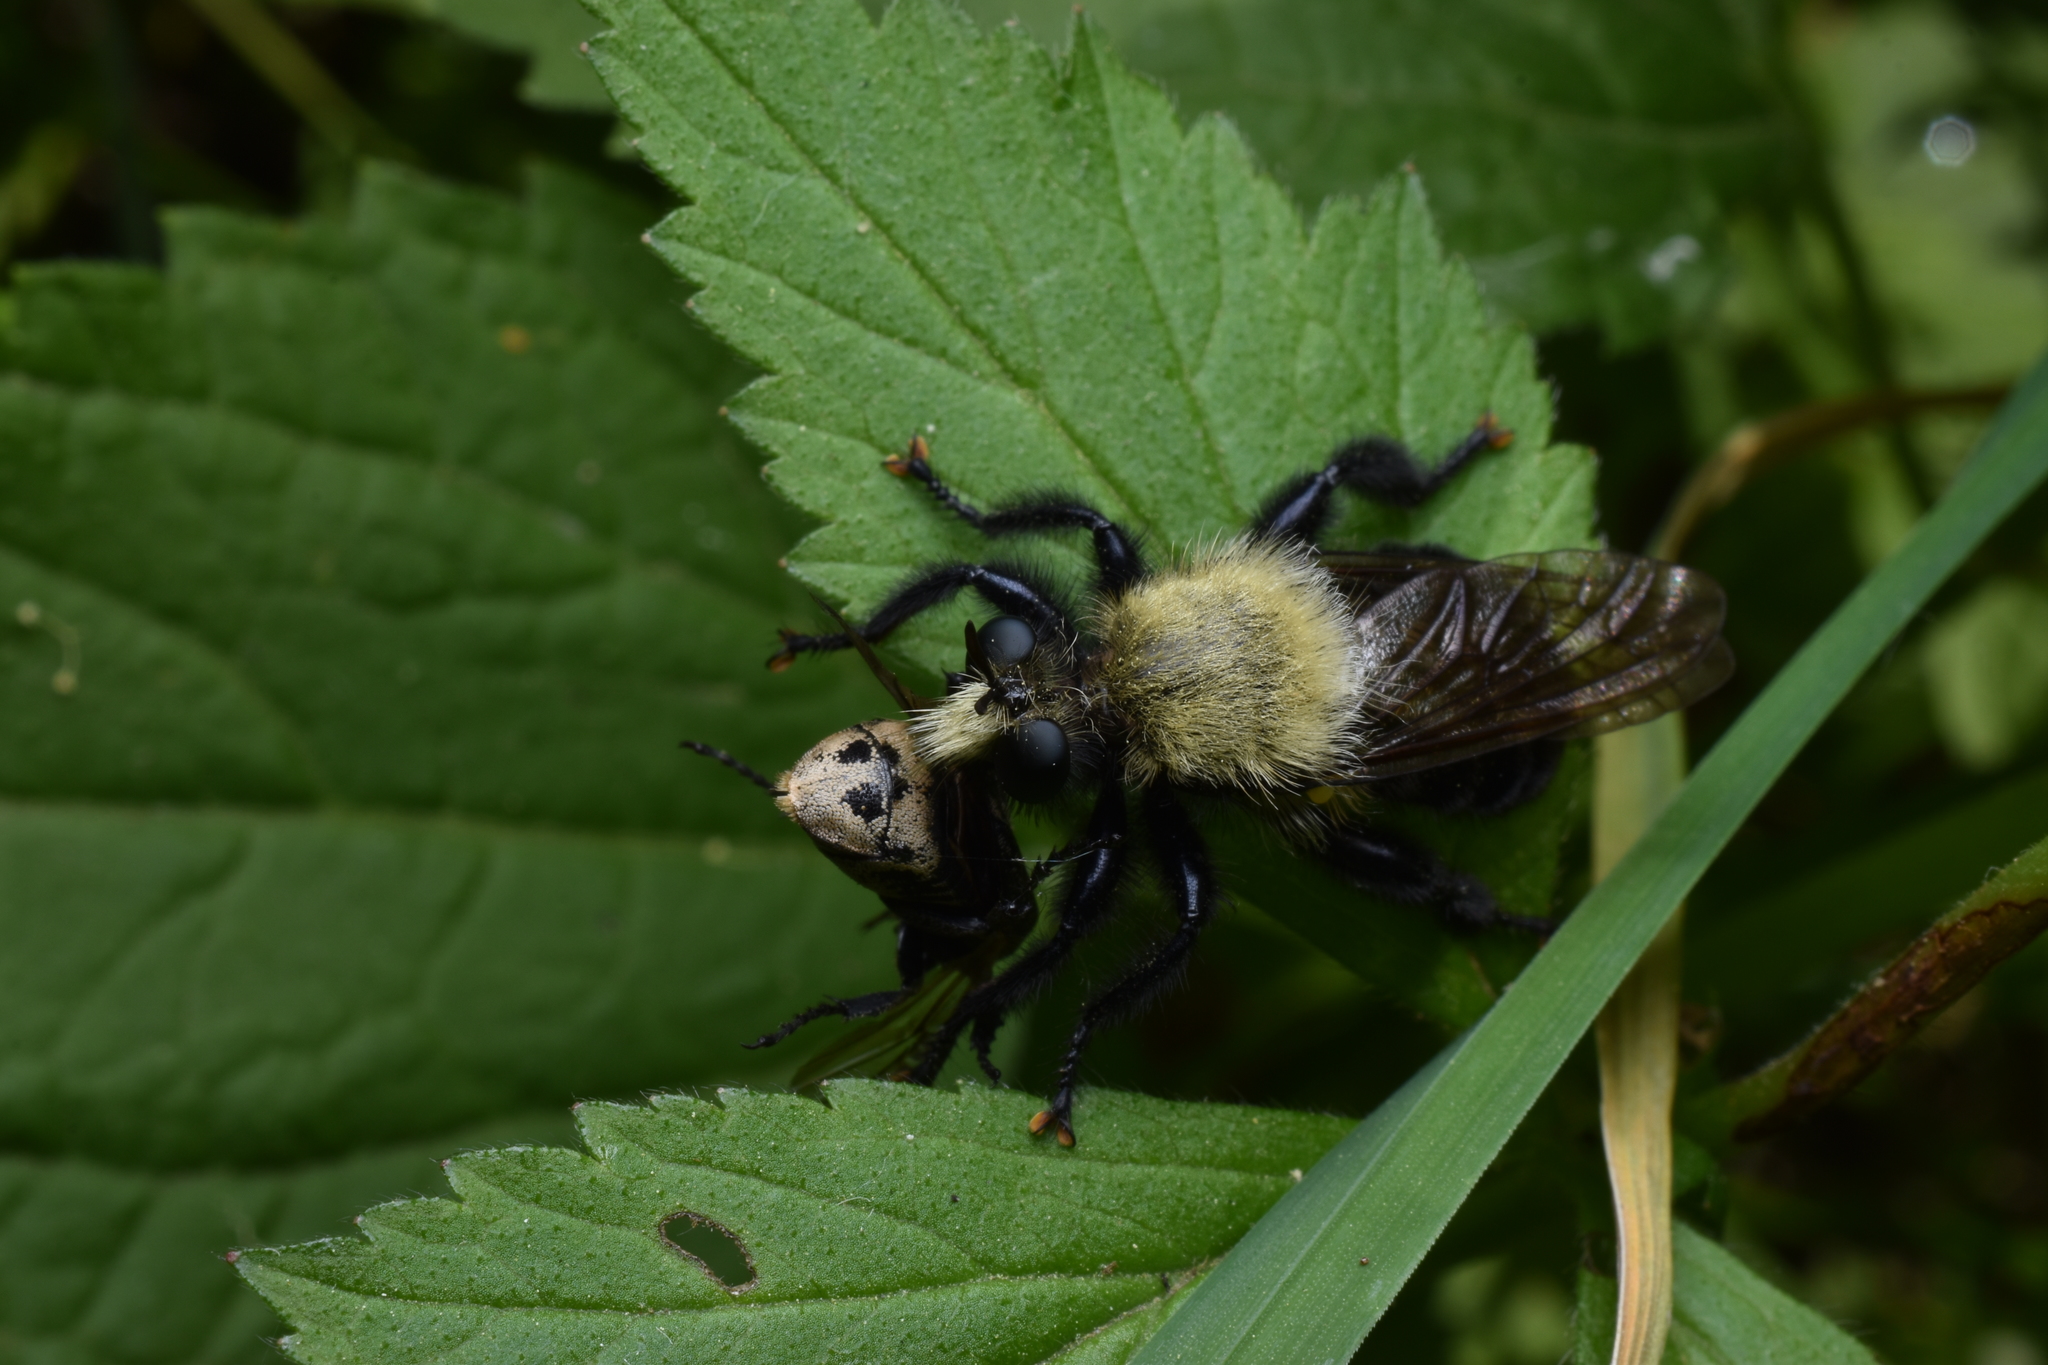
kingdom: Animalia
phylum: Arthropoda
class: Insecta
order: Diptera
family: Asilidae
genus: Laphria
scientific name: Laphria flavicollis
